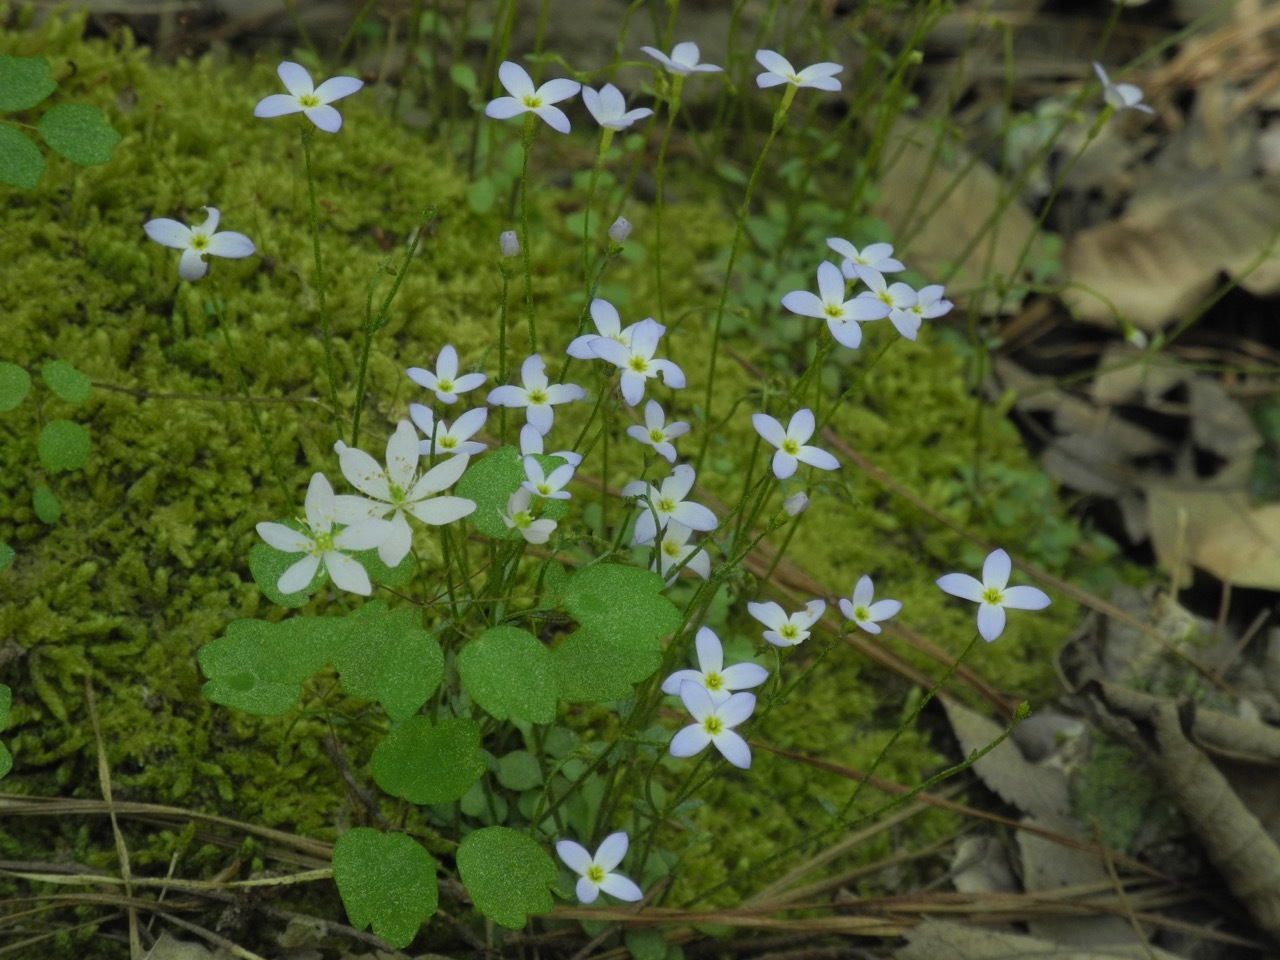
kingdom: Plantae
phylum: Tracheophyta
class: Magnoliopsida
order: Gentianales
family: Rubiaceae
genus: Houstonia
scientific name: Houstonia caerulea
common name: Bluets
